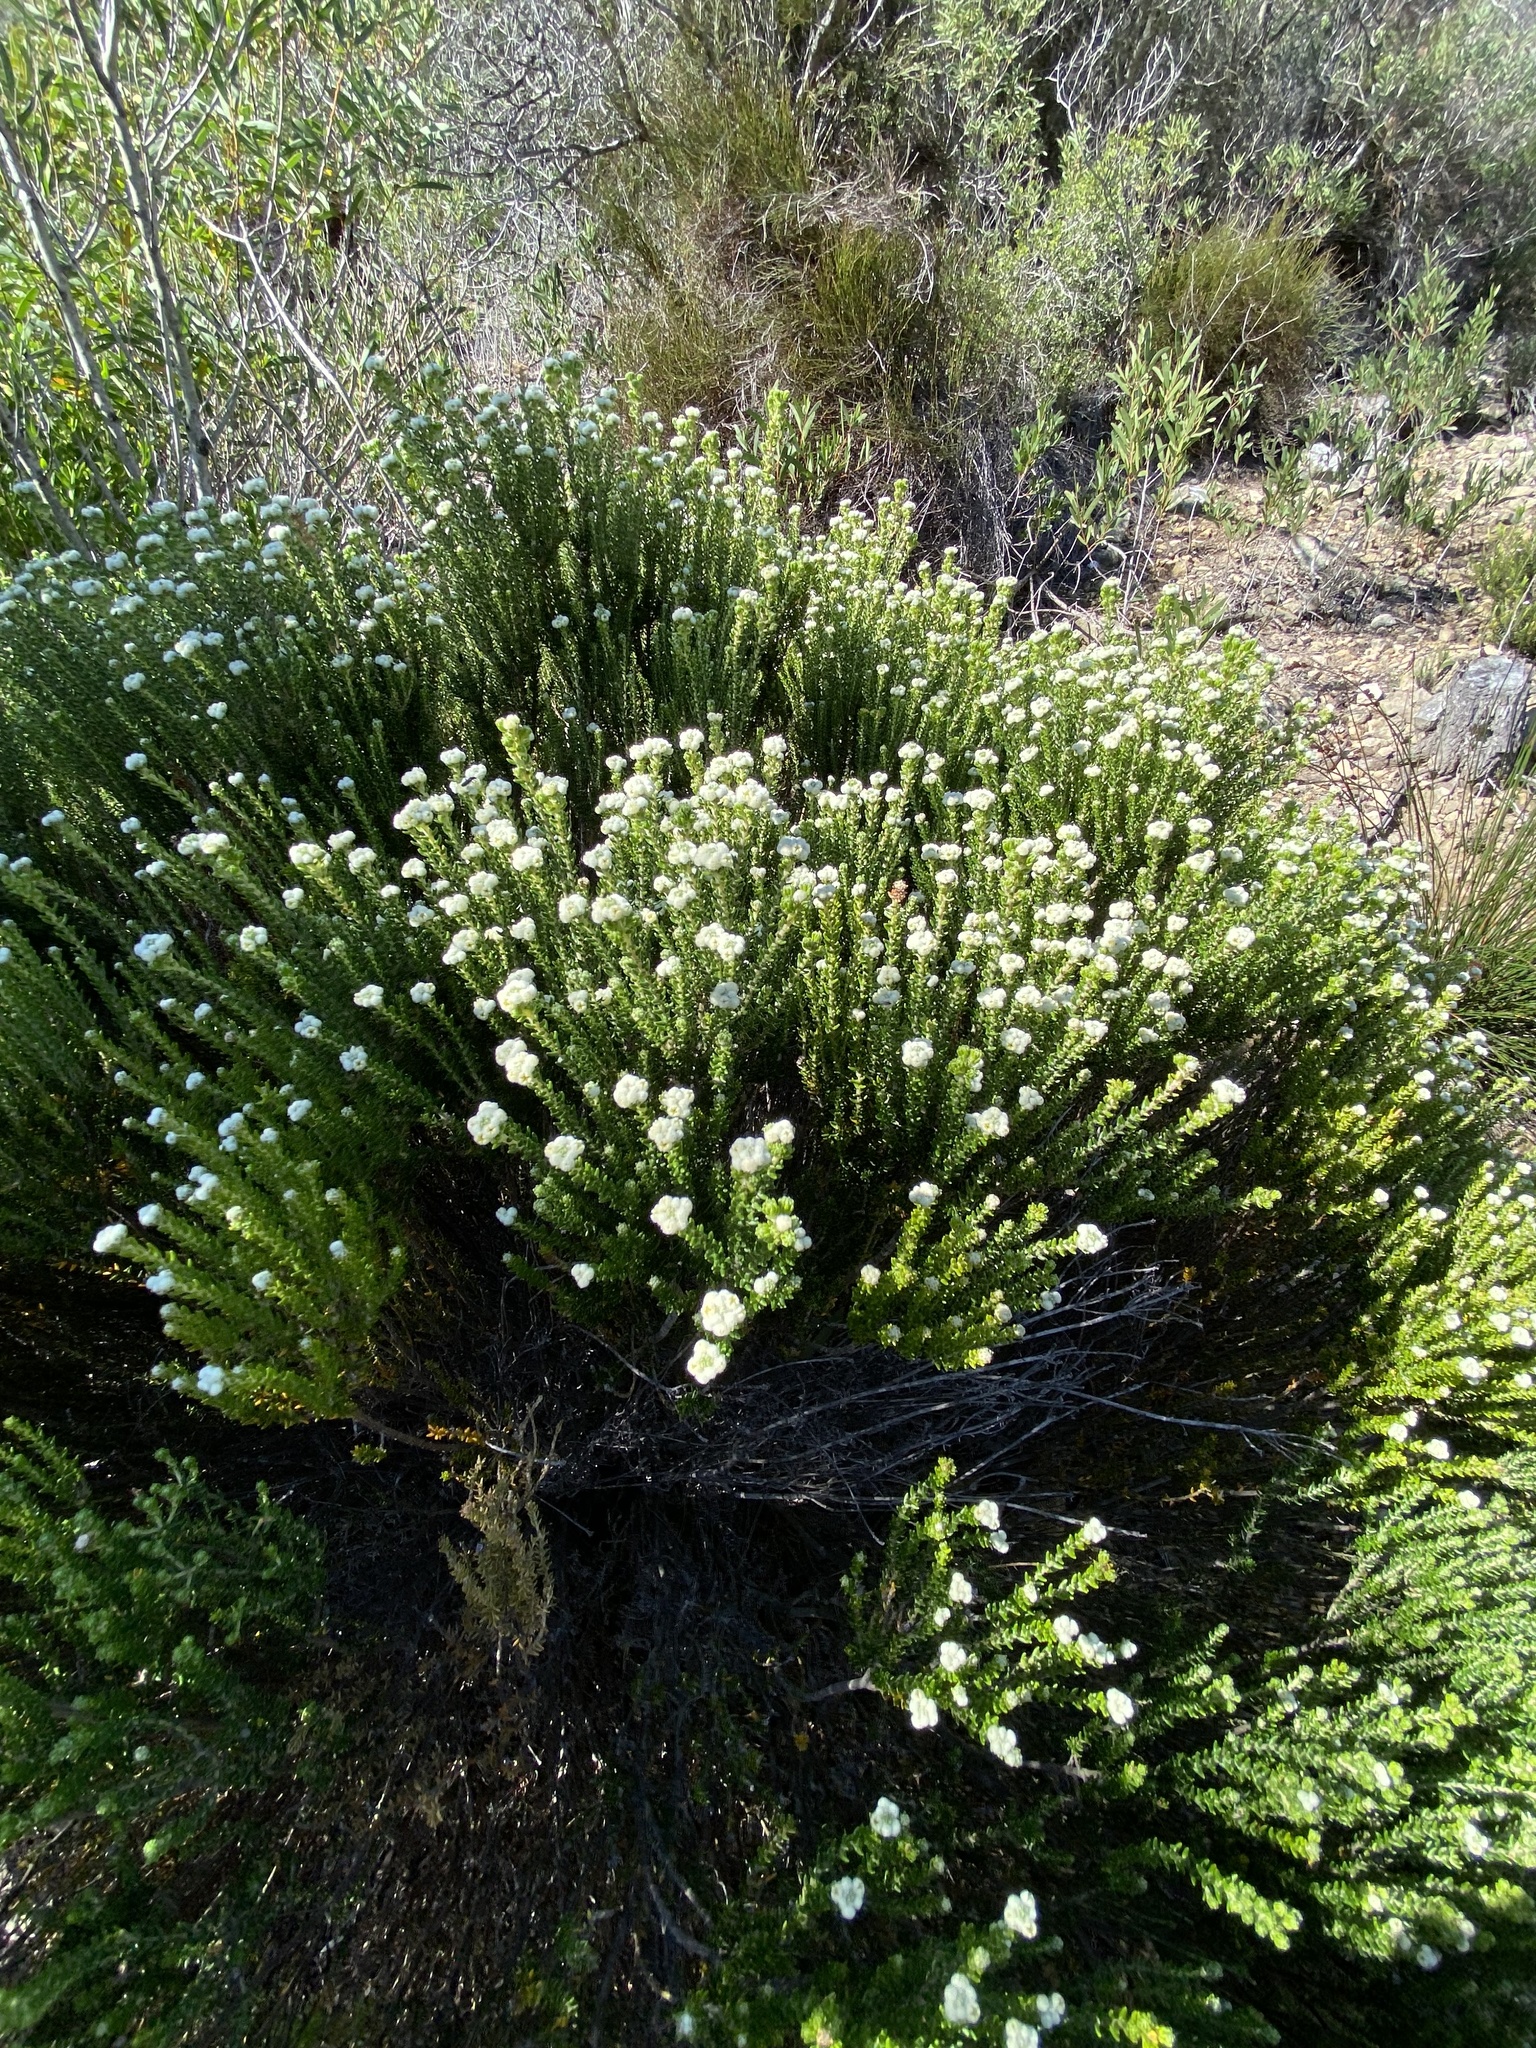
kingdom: Plantae
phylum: Tracheophyta
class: Magnoliopsida
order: Rosales
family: Rhamnaceae
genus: Phylica
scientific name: Phylica ericoides
